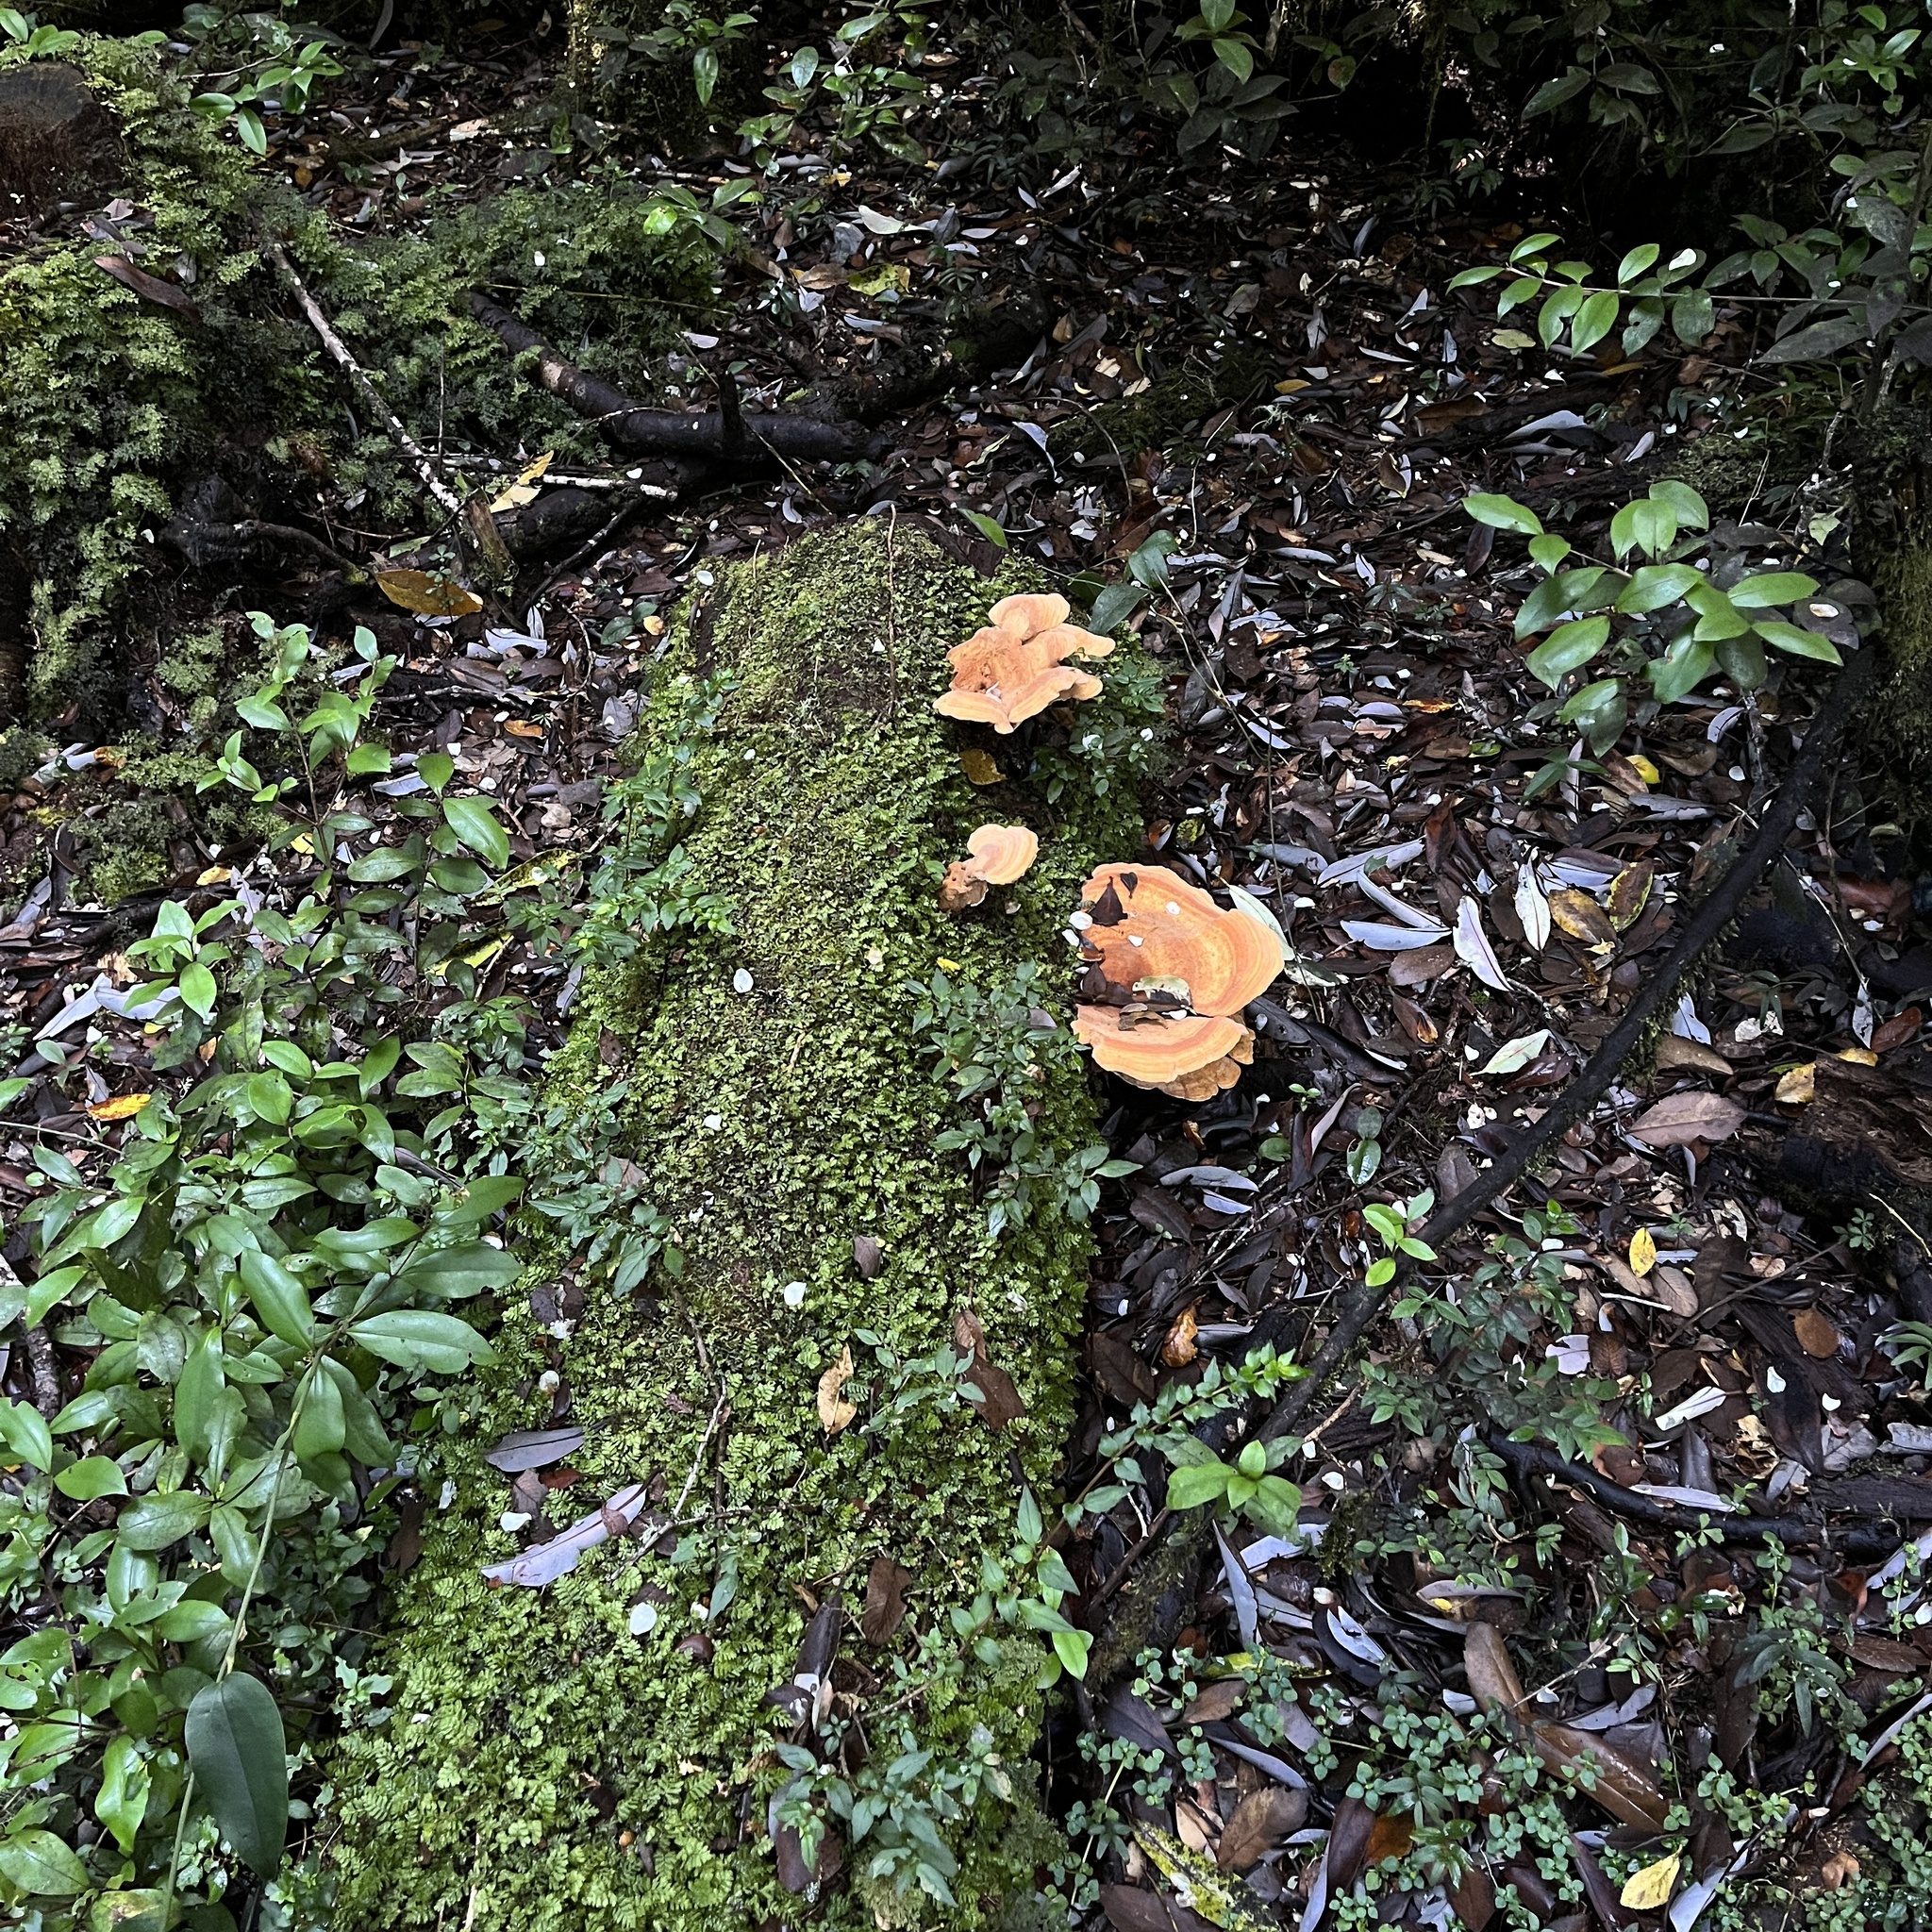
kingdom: Fungi
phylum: Basidiomycota
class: Agaricomycetes
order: Russulales
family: Bondarzewiaceae
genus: Bondarzewia
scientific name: Bondarzewia guaitecasensis
